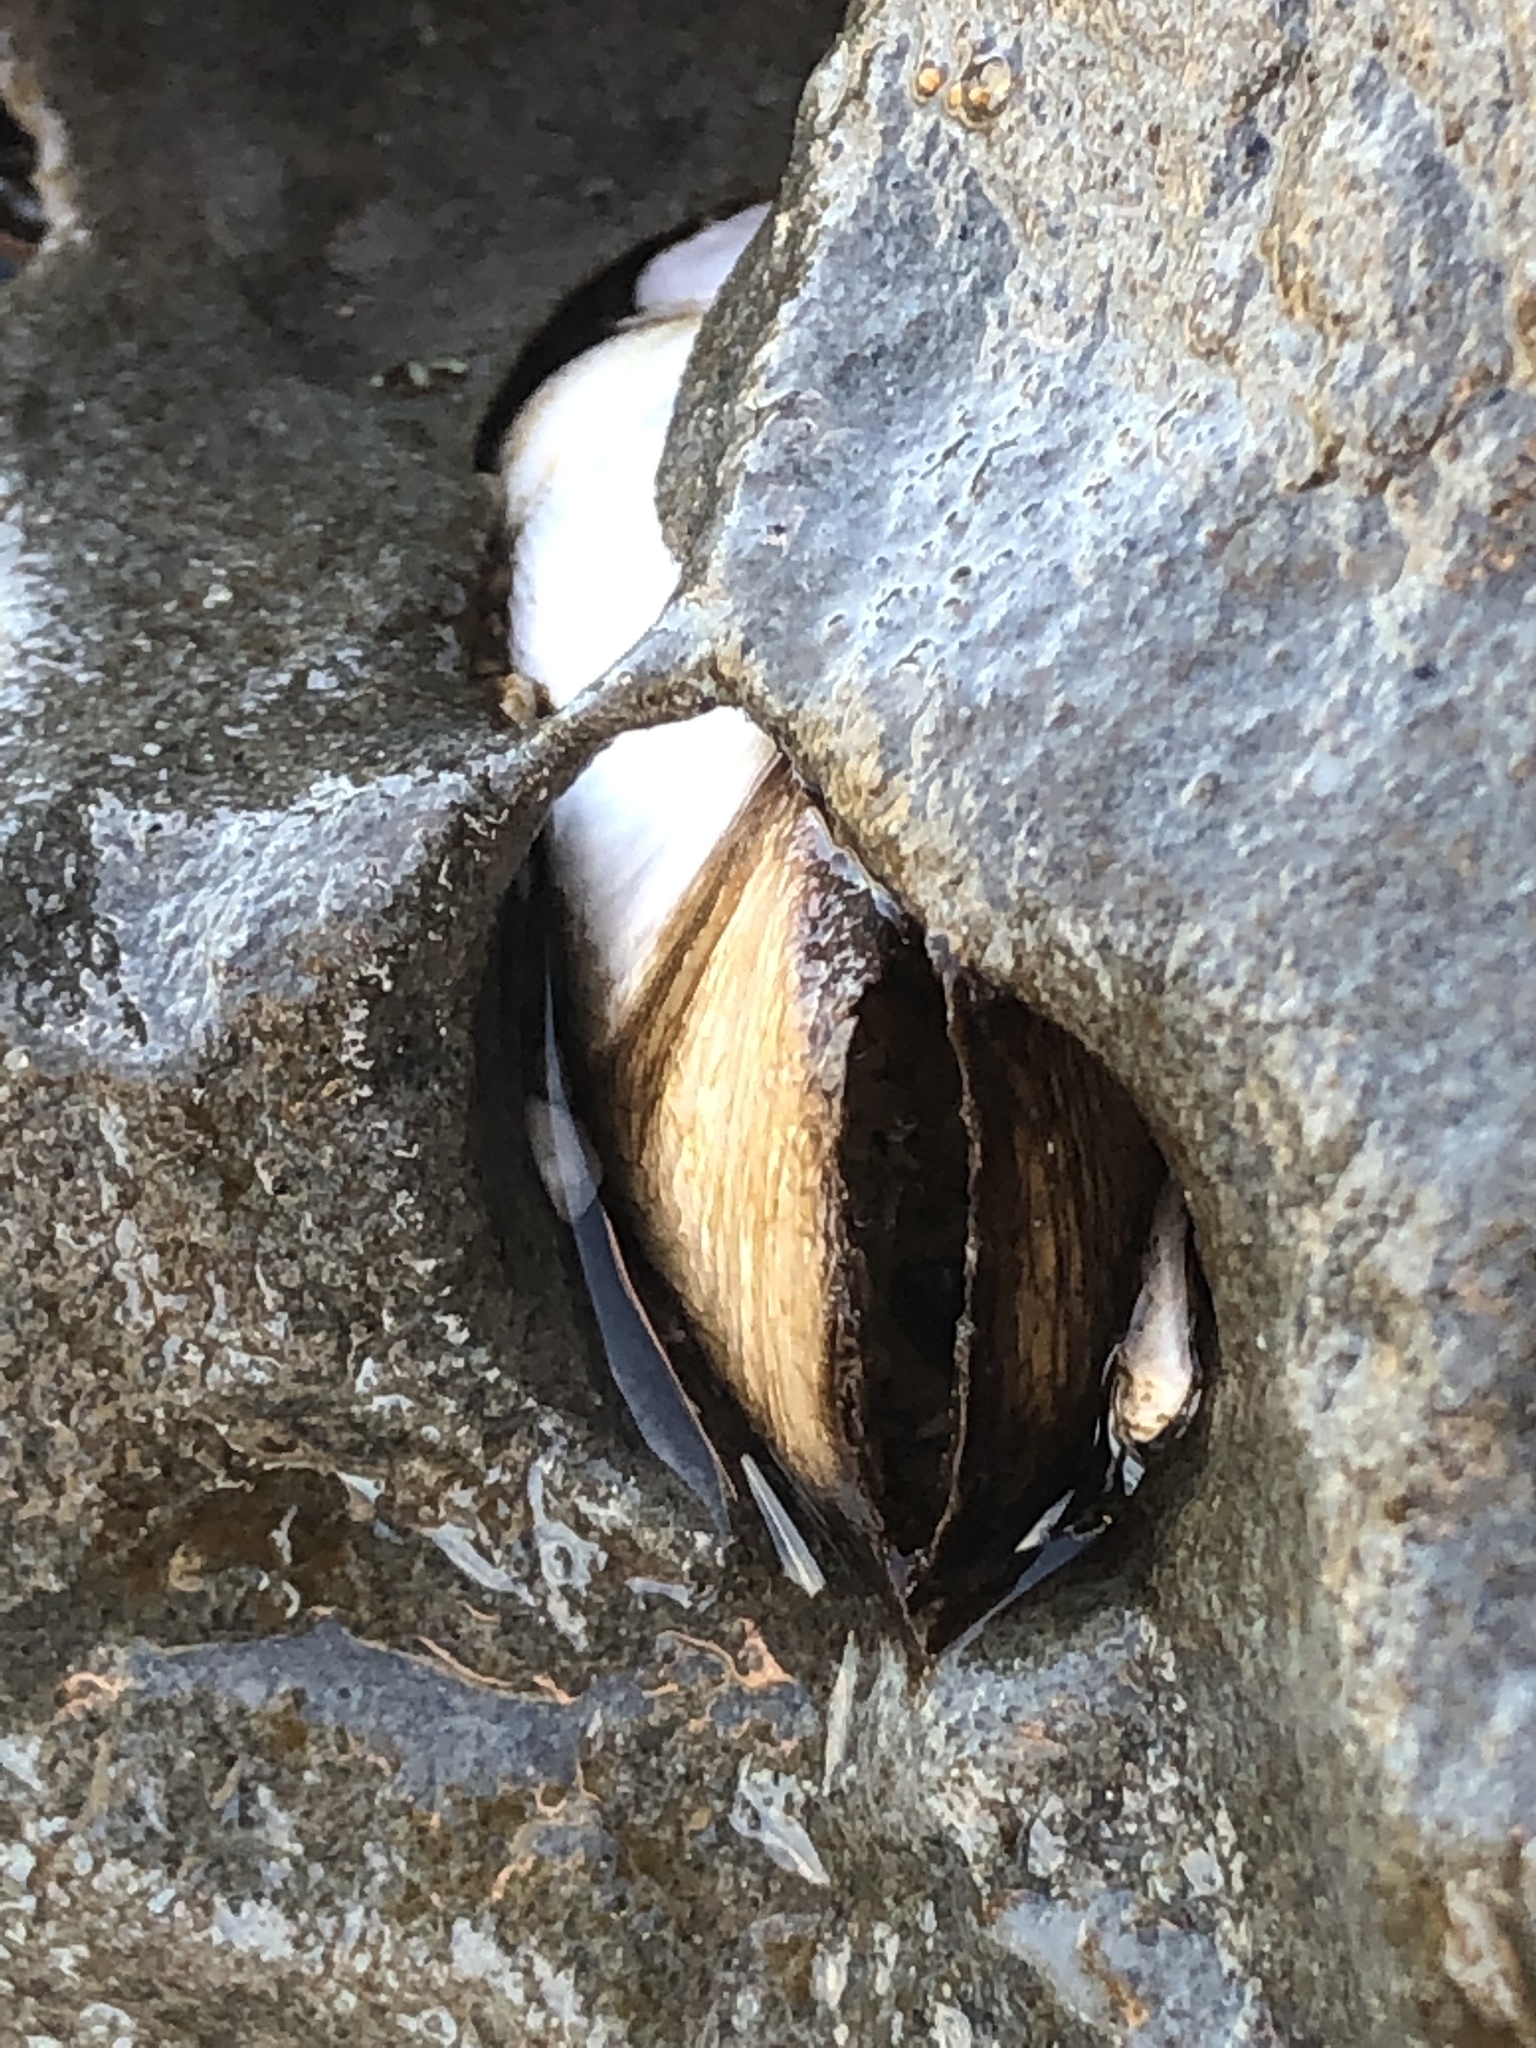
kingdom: Animalia
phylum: Mollusca
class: Bivalvia
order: Myida
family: Pholadidae
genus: Parapholas
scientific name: Parapholas californica
